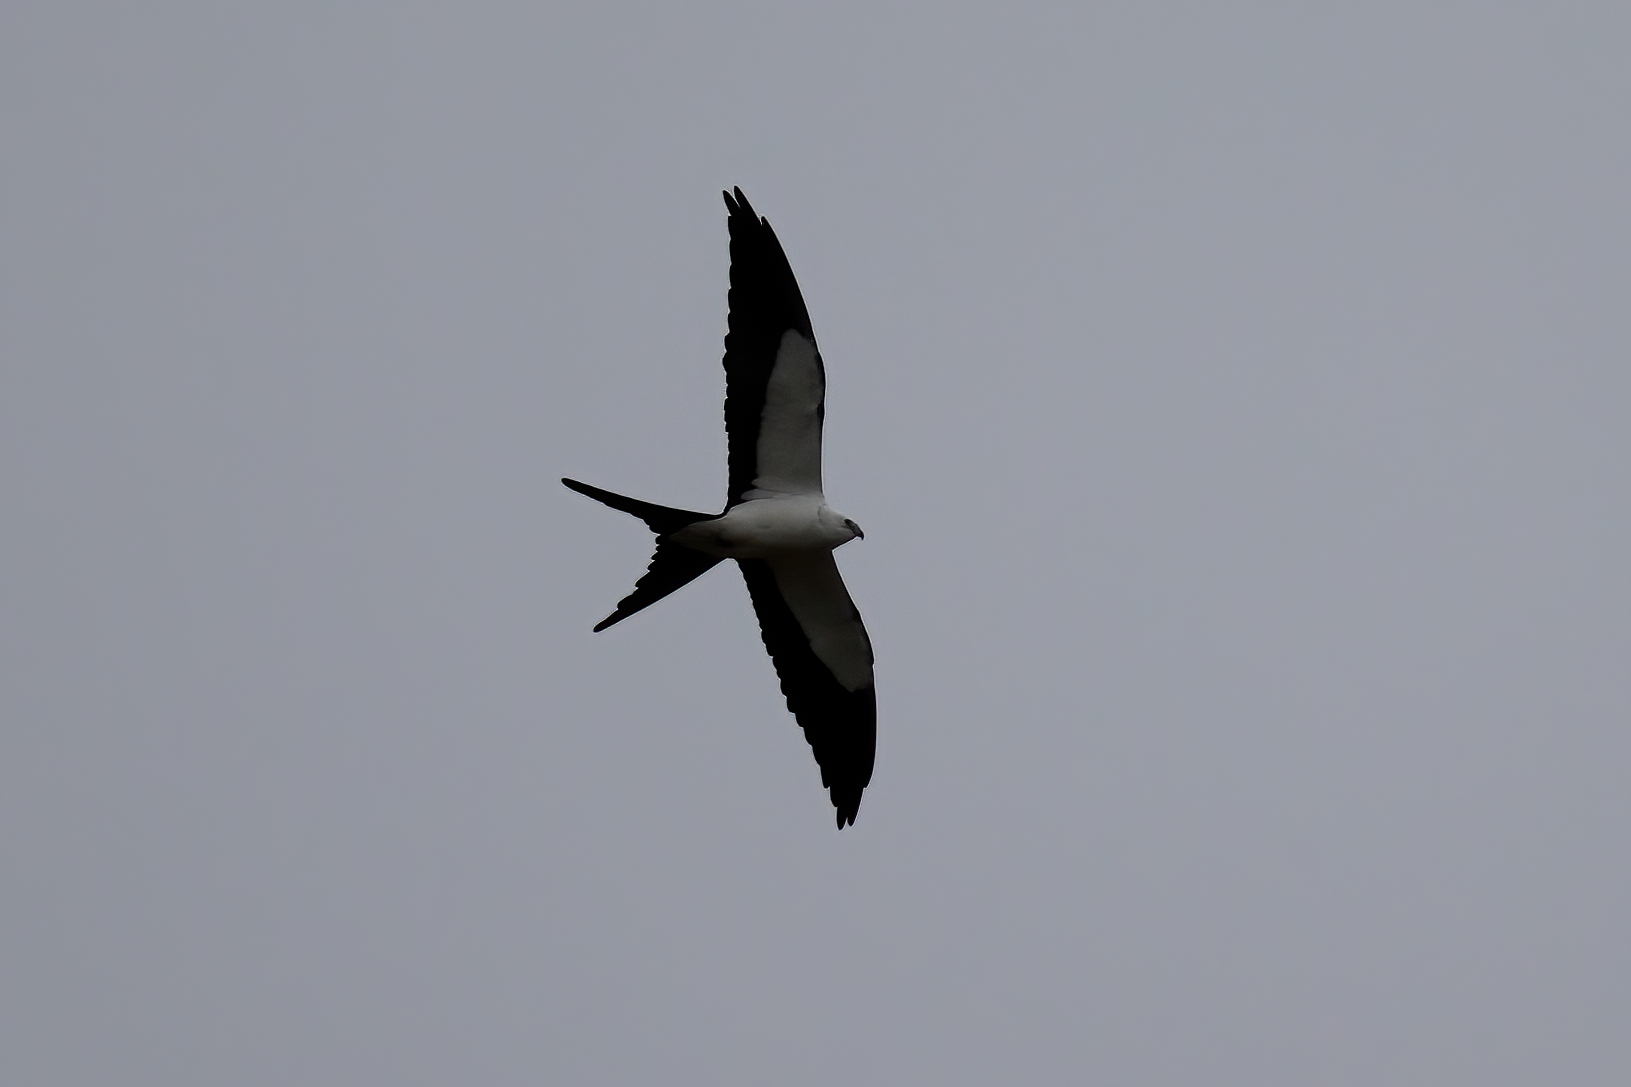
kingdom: Animalia
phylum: Chordata
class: Aves
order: Accipitriformes
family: Accipitridae
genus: Elanoides
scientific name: Elanoides forficatus
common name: Swallow-tailed kite
